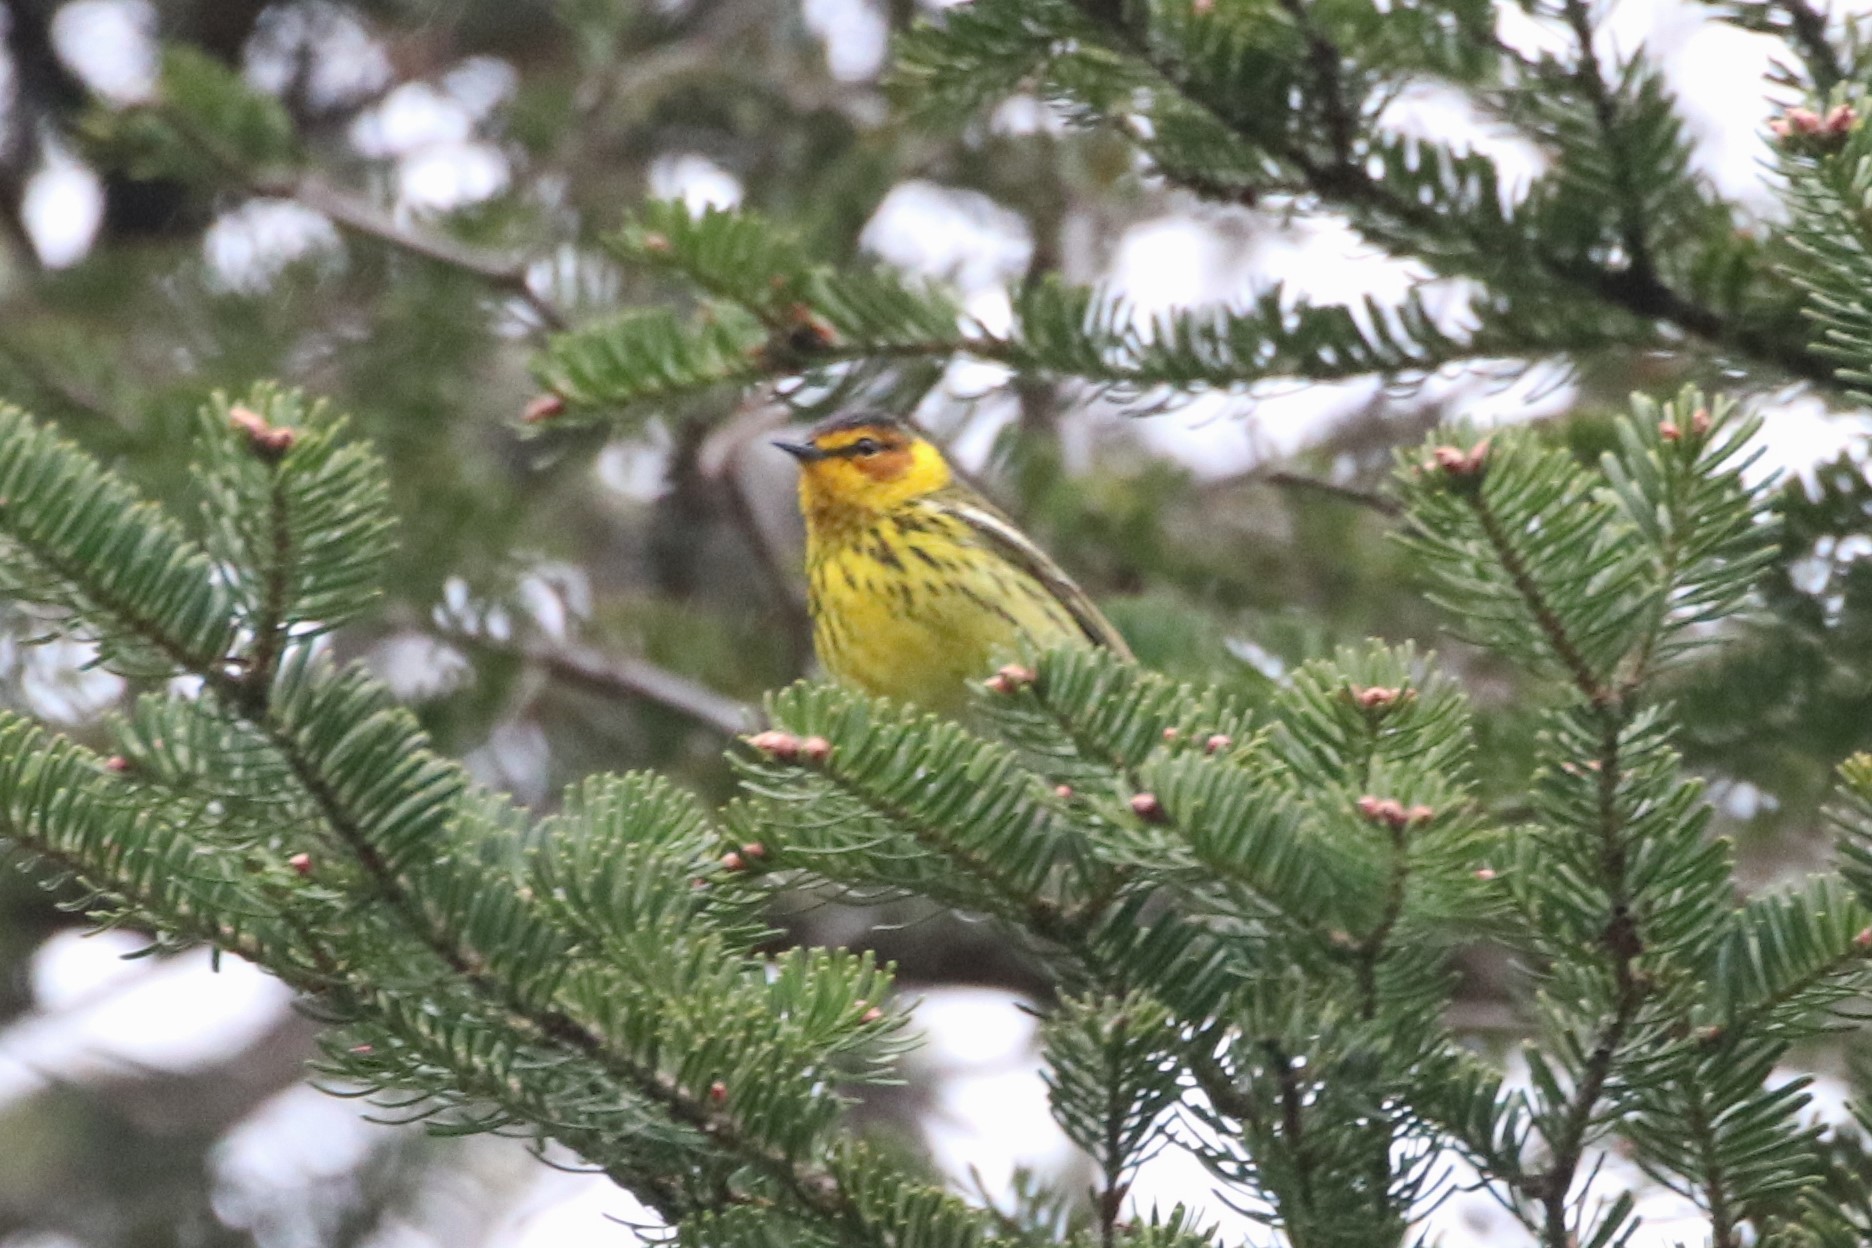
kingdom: Animalia
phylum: Chordata
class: Aves
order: Passeriformes
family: Parulidae
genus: Setophaga
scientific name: Setophaga tigrina
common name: Cape may warbler
